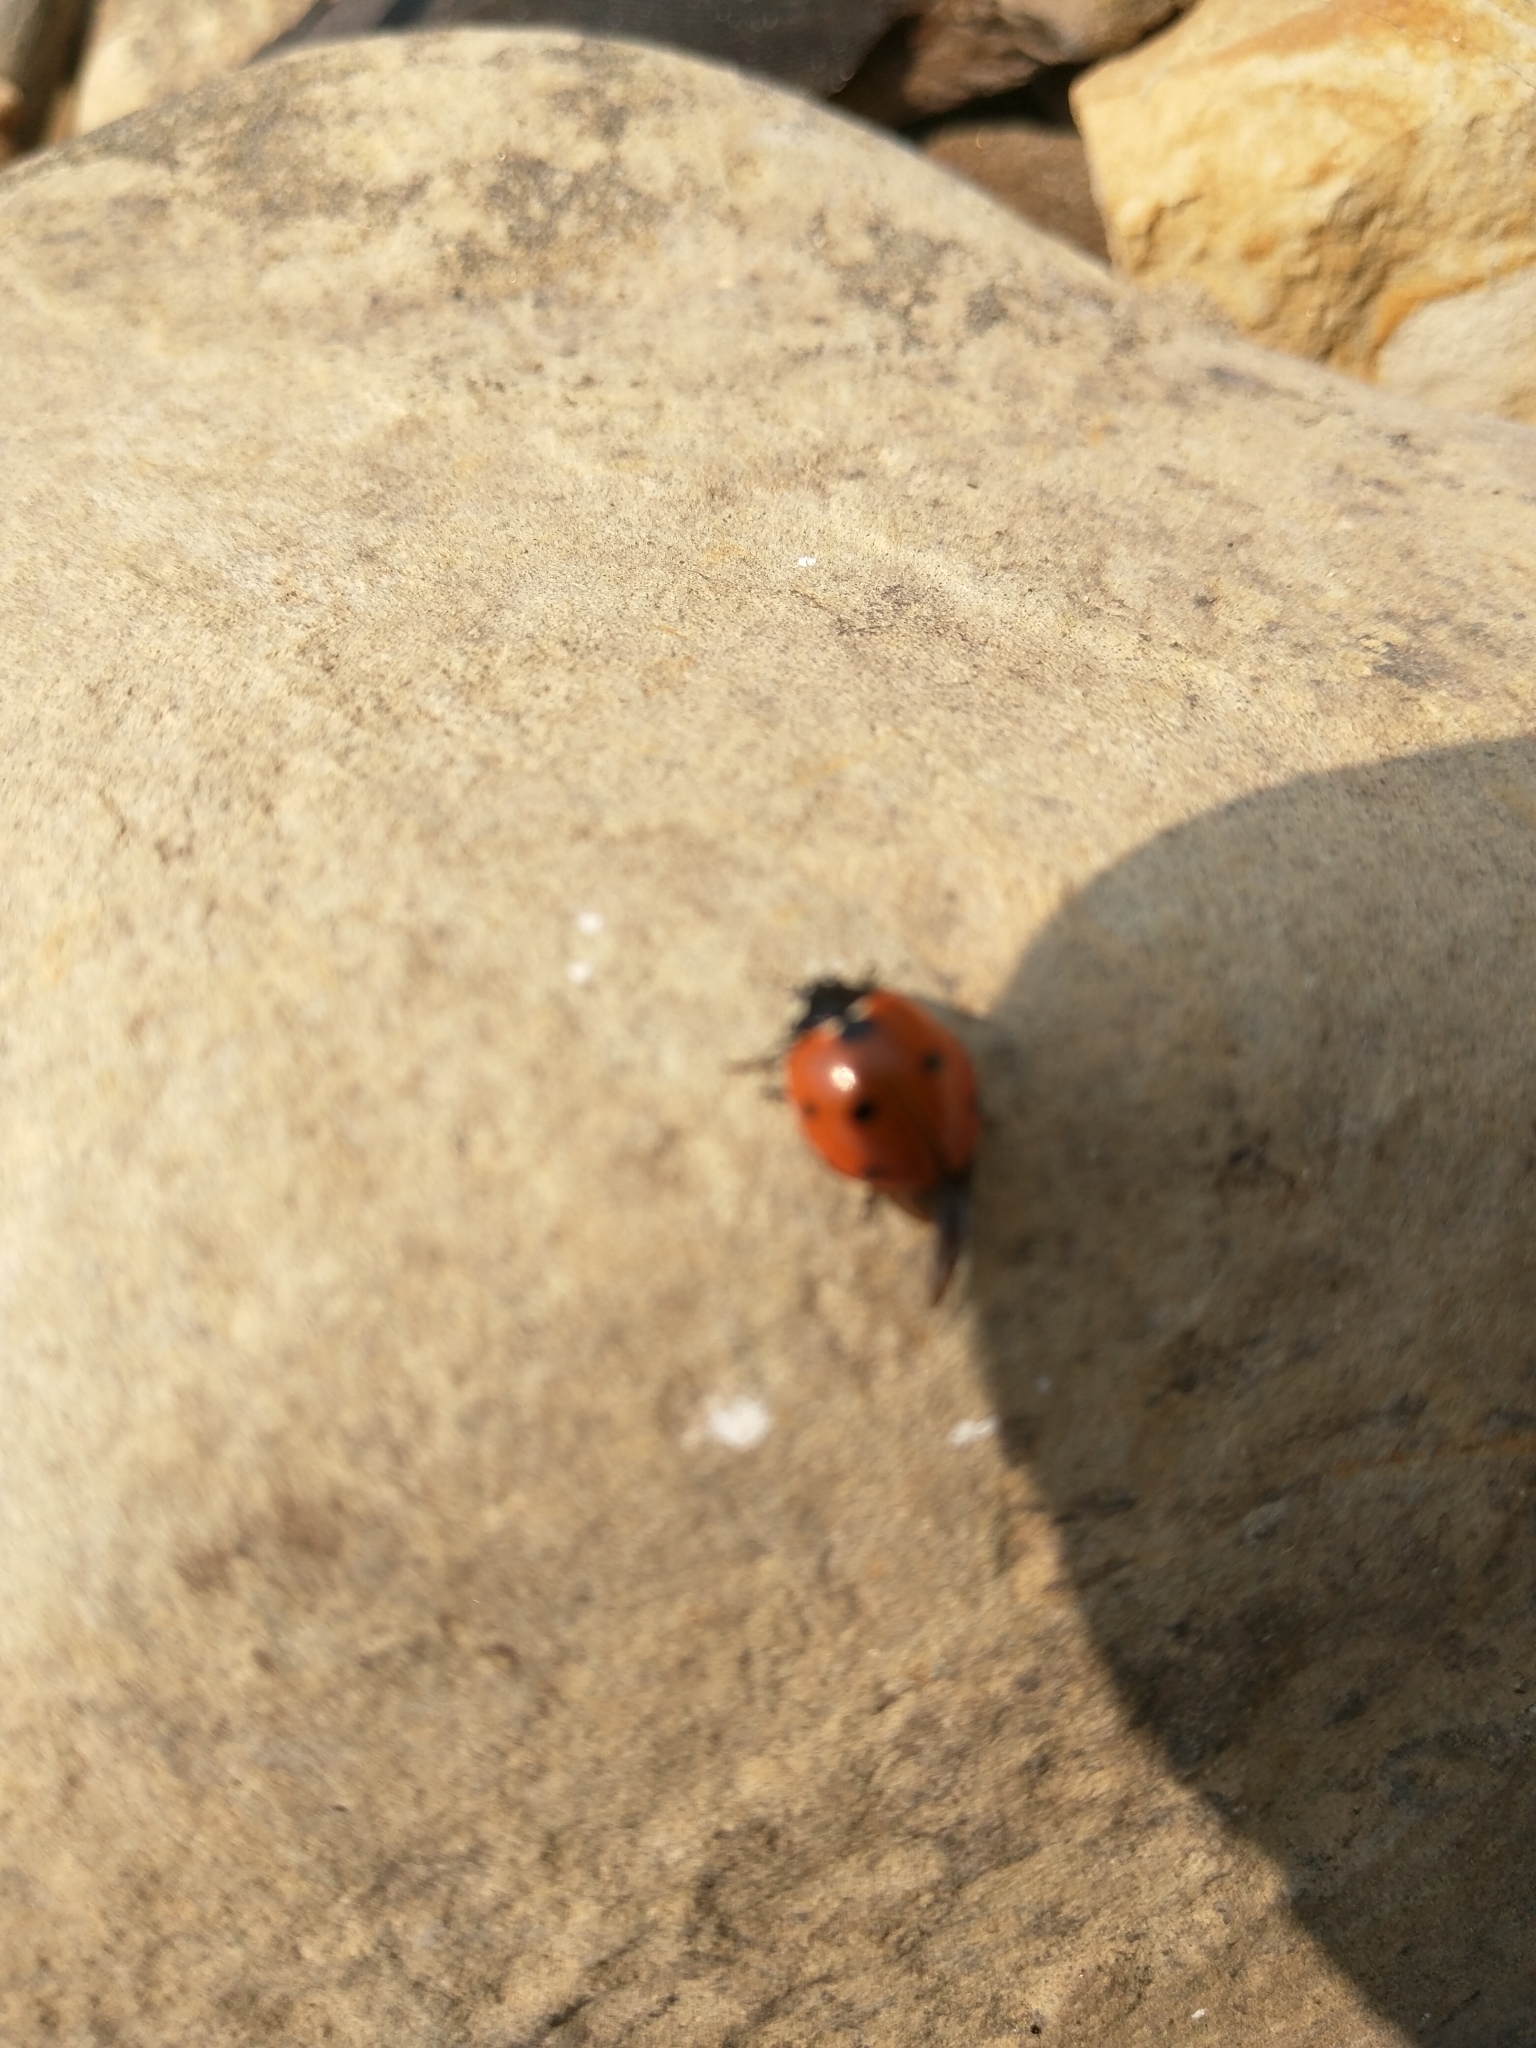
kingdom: Animalia
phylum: Arthropoda
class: Insecta
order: Coleoptera
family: Coccinellidae
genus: Coccinella
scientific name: Coccinella septempunctata
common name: Sevenspotted lady beetle
